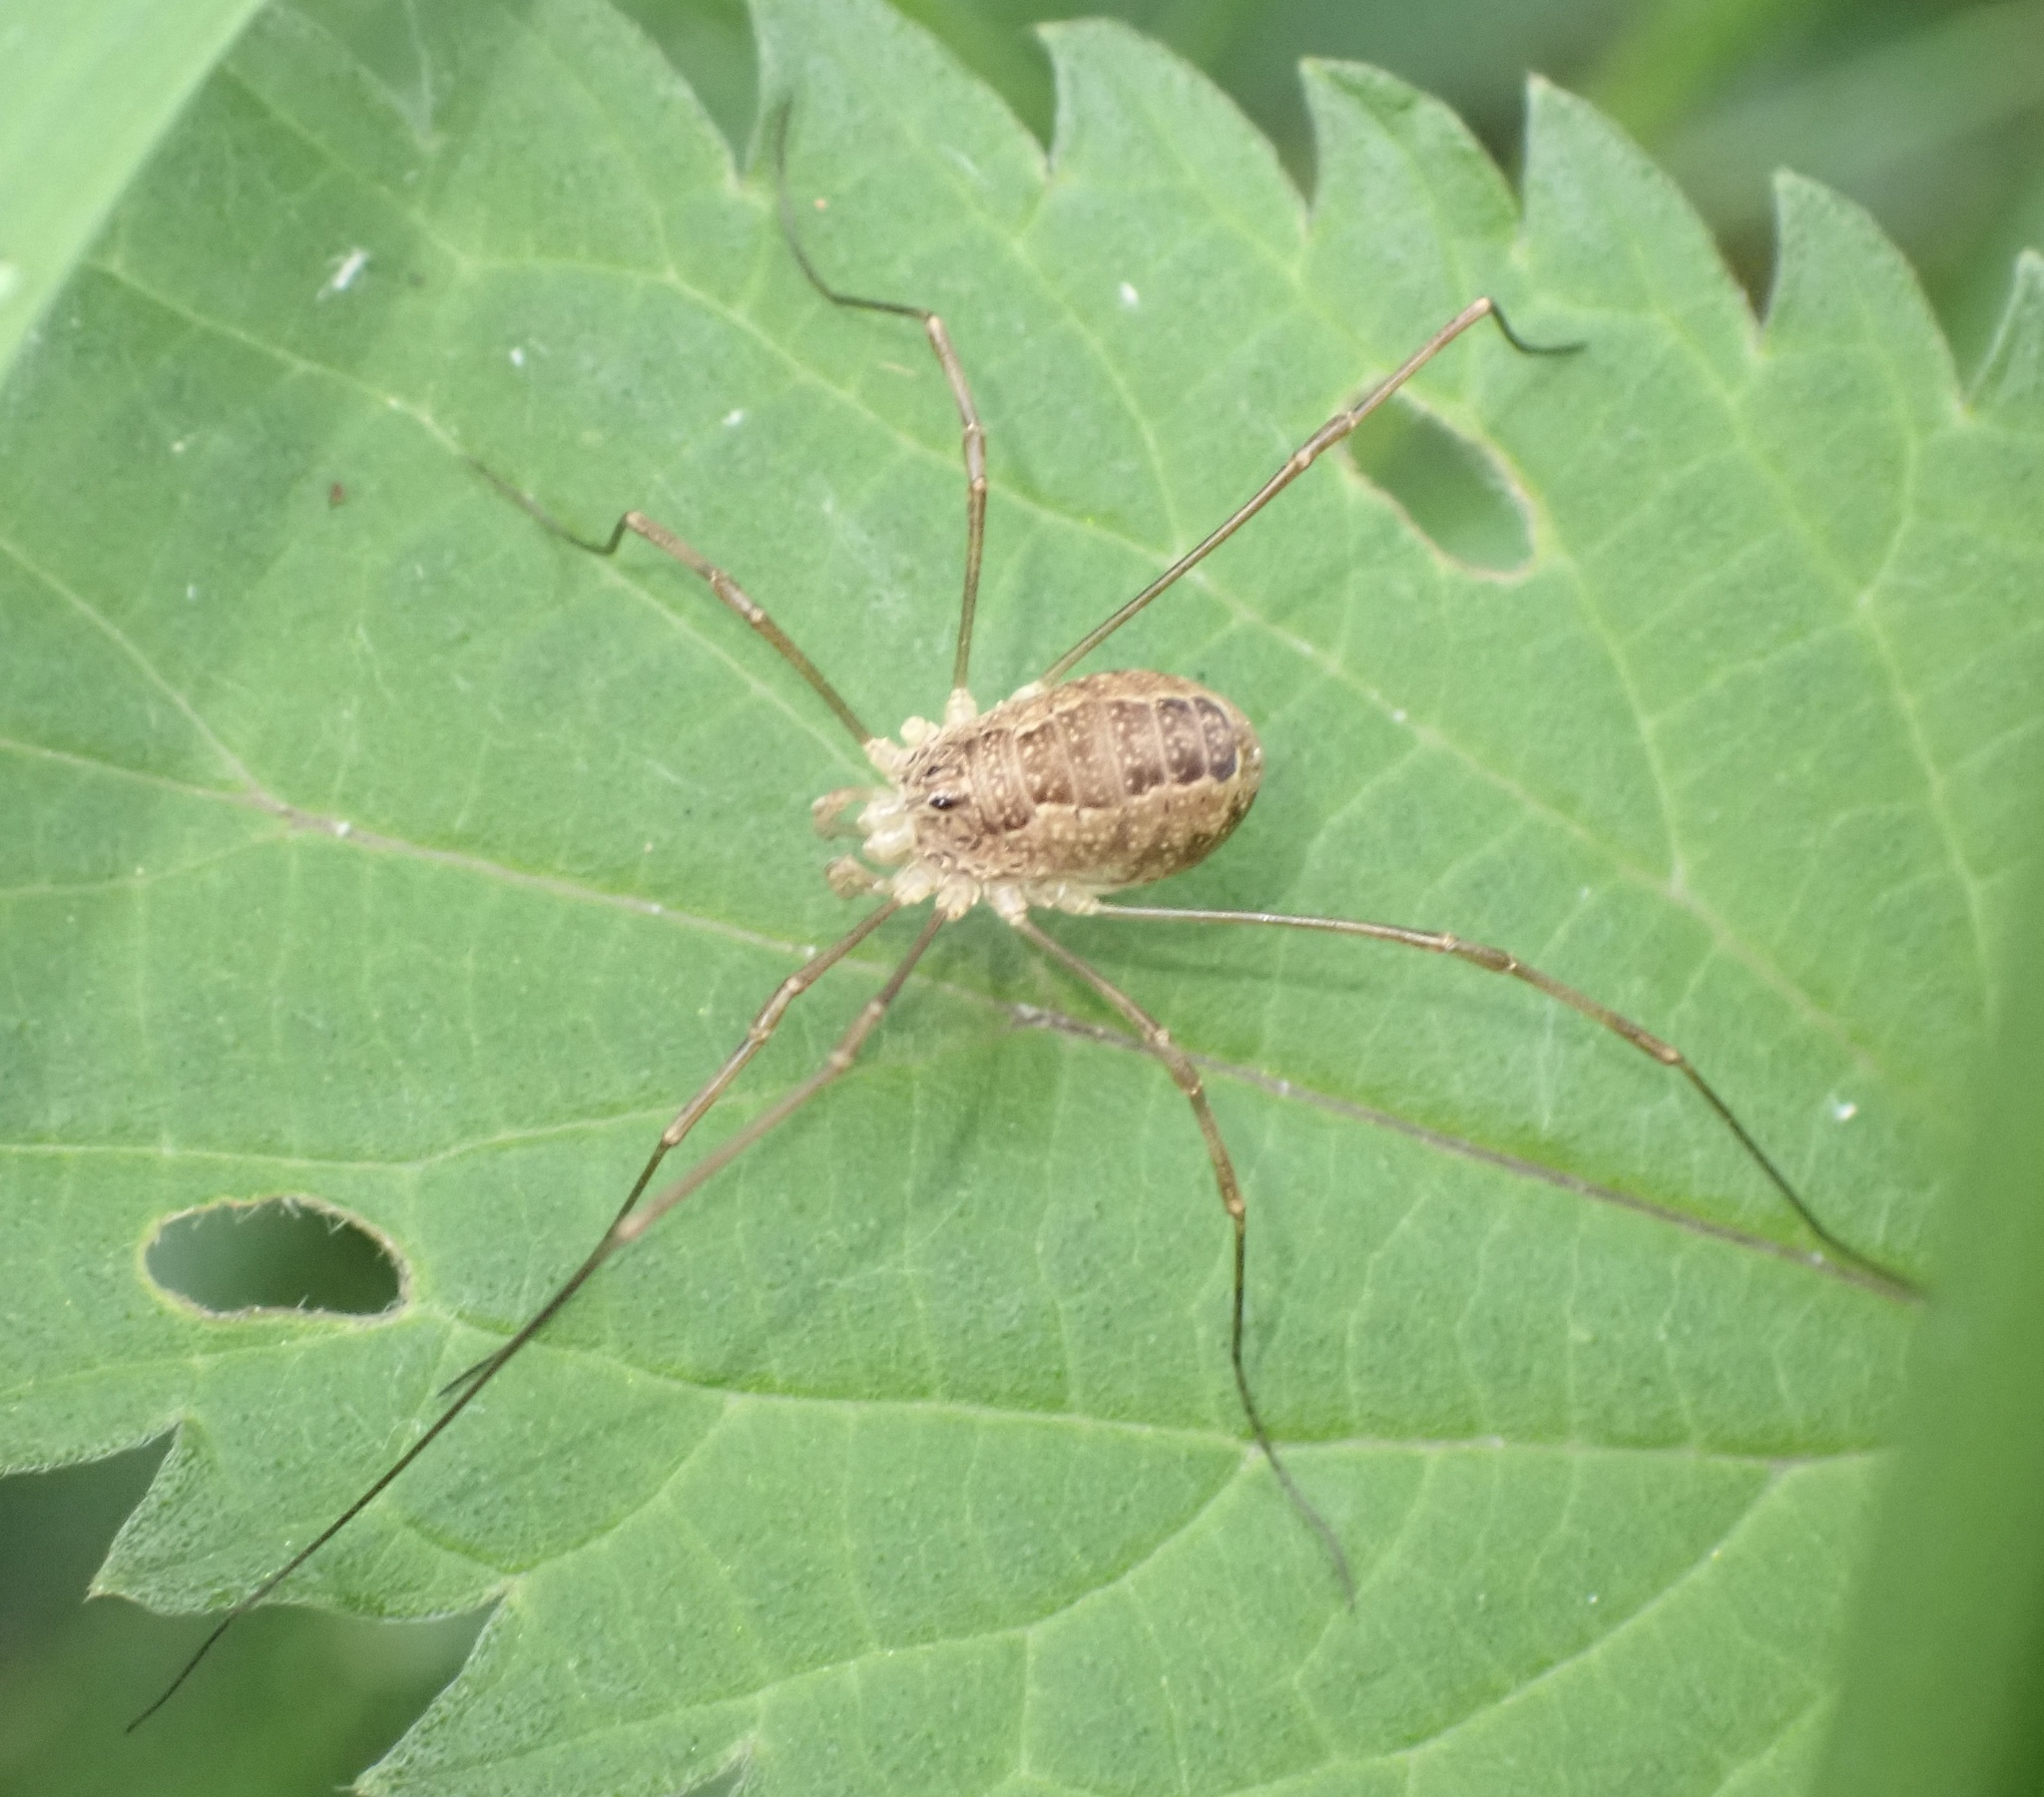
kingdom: Animalia
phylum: Arthropoda
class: Arachnida
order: Opiliones
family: Phalangiidae
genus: Rilaena
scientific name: Rilaena triangularis
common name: Spring harvestman
